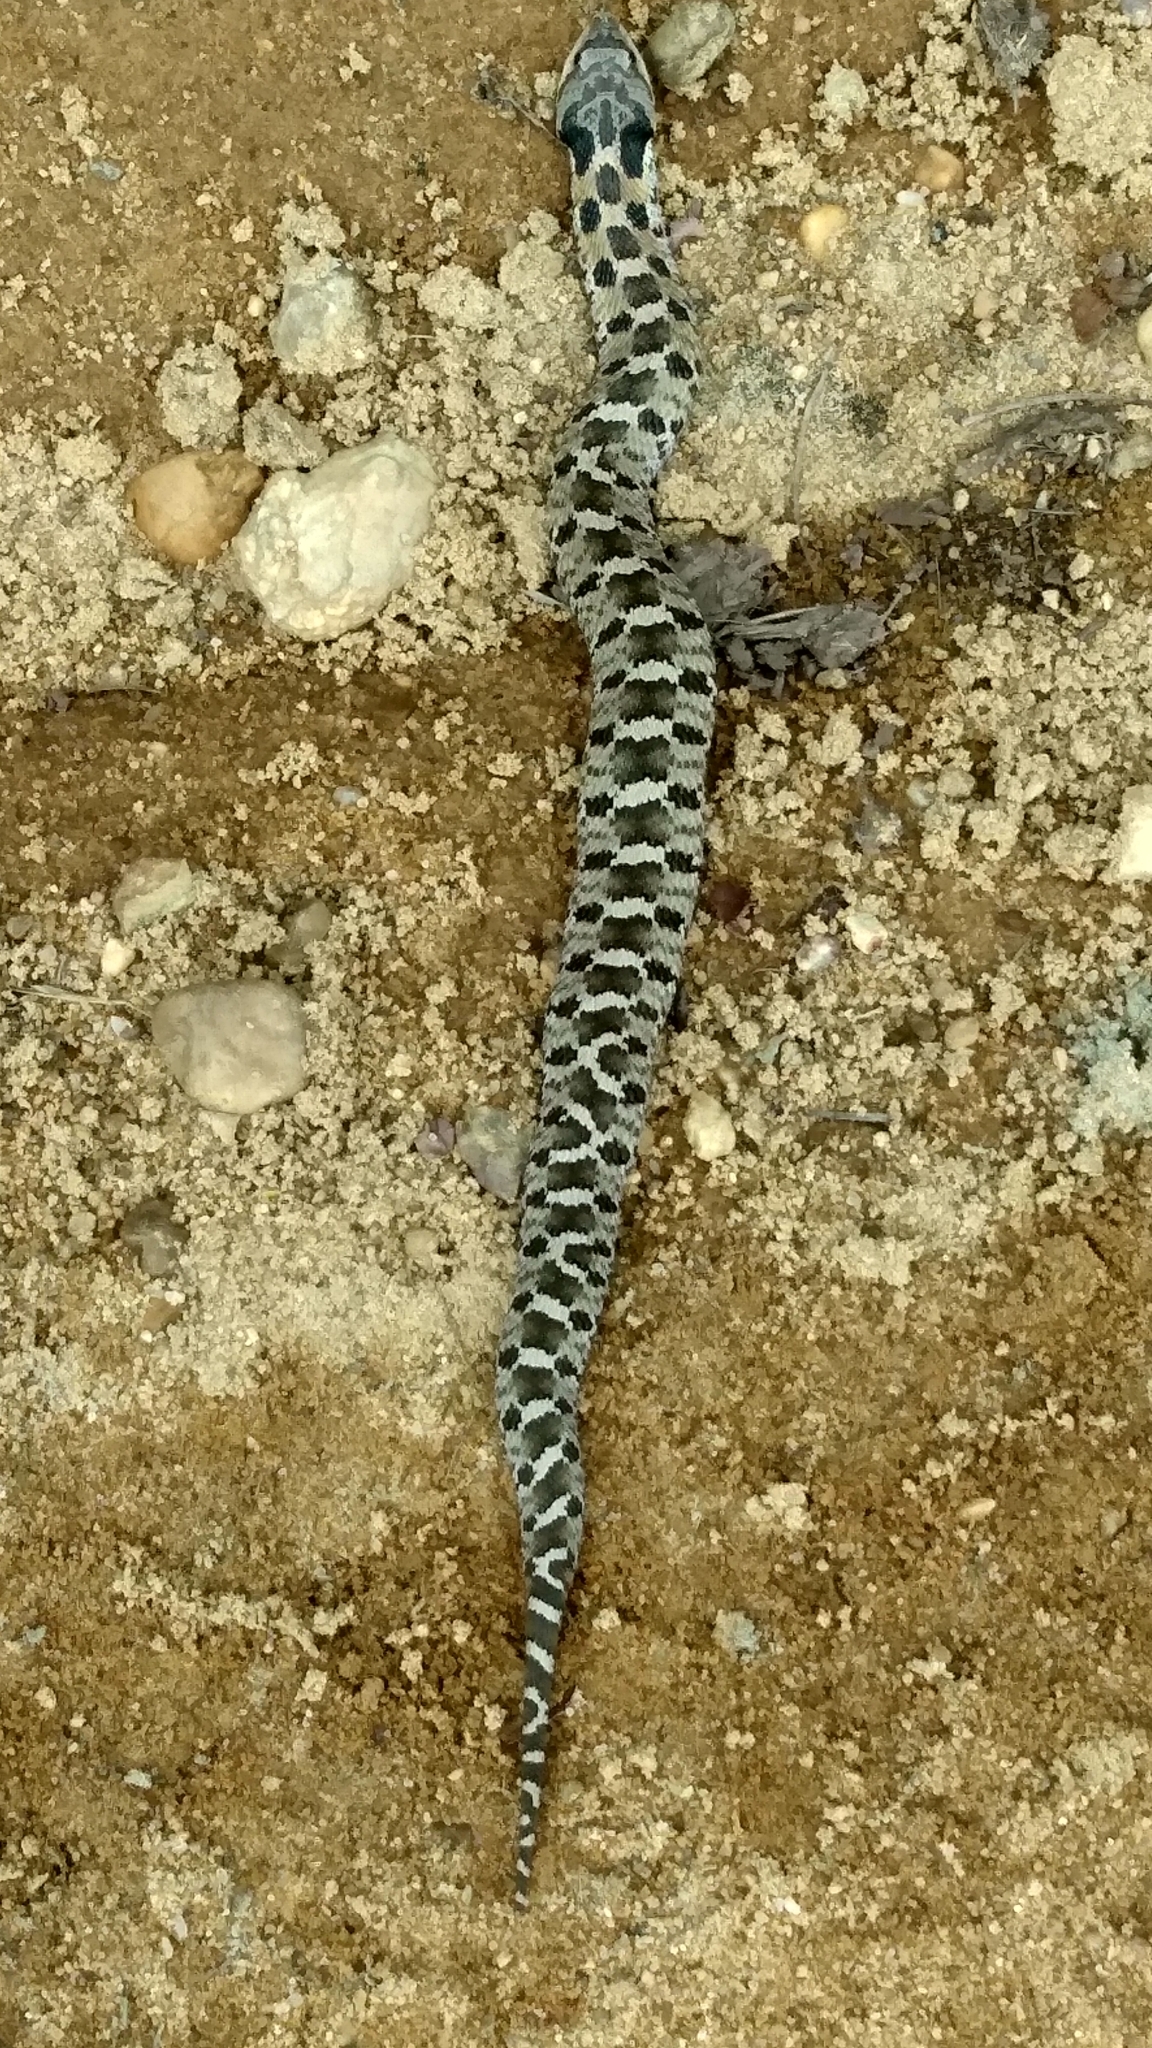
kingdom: Animalia
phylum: Chordata
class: Squamata
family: Colubridae
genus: Heterodon
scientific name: Heterodon platirhinos
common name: Eastern hognose snake
